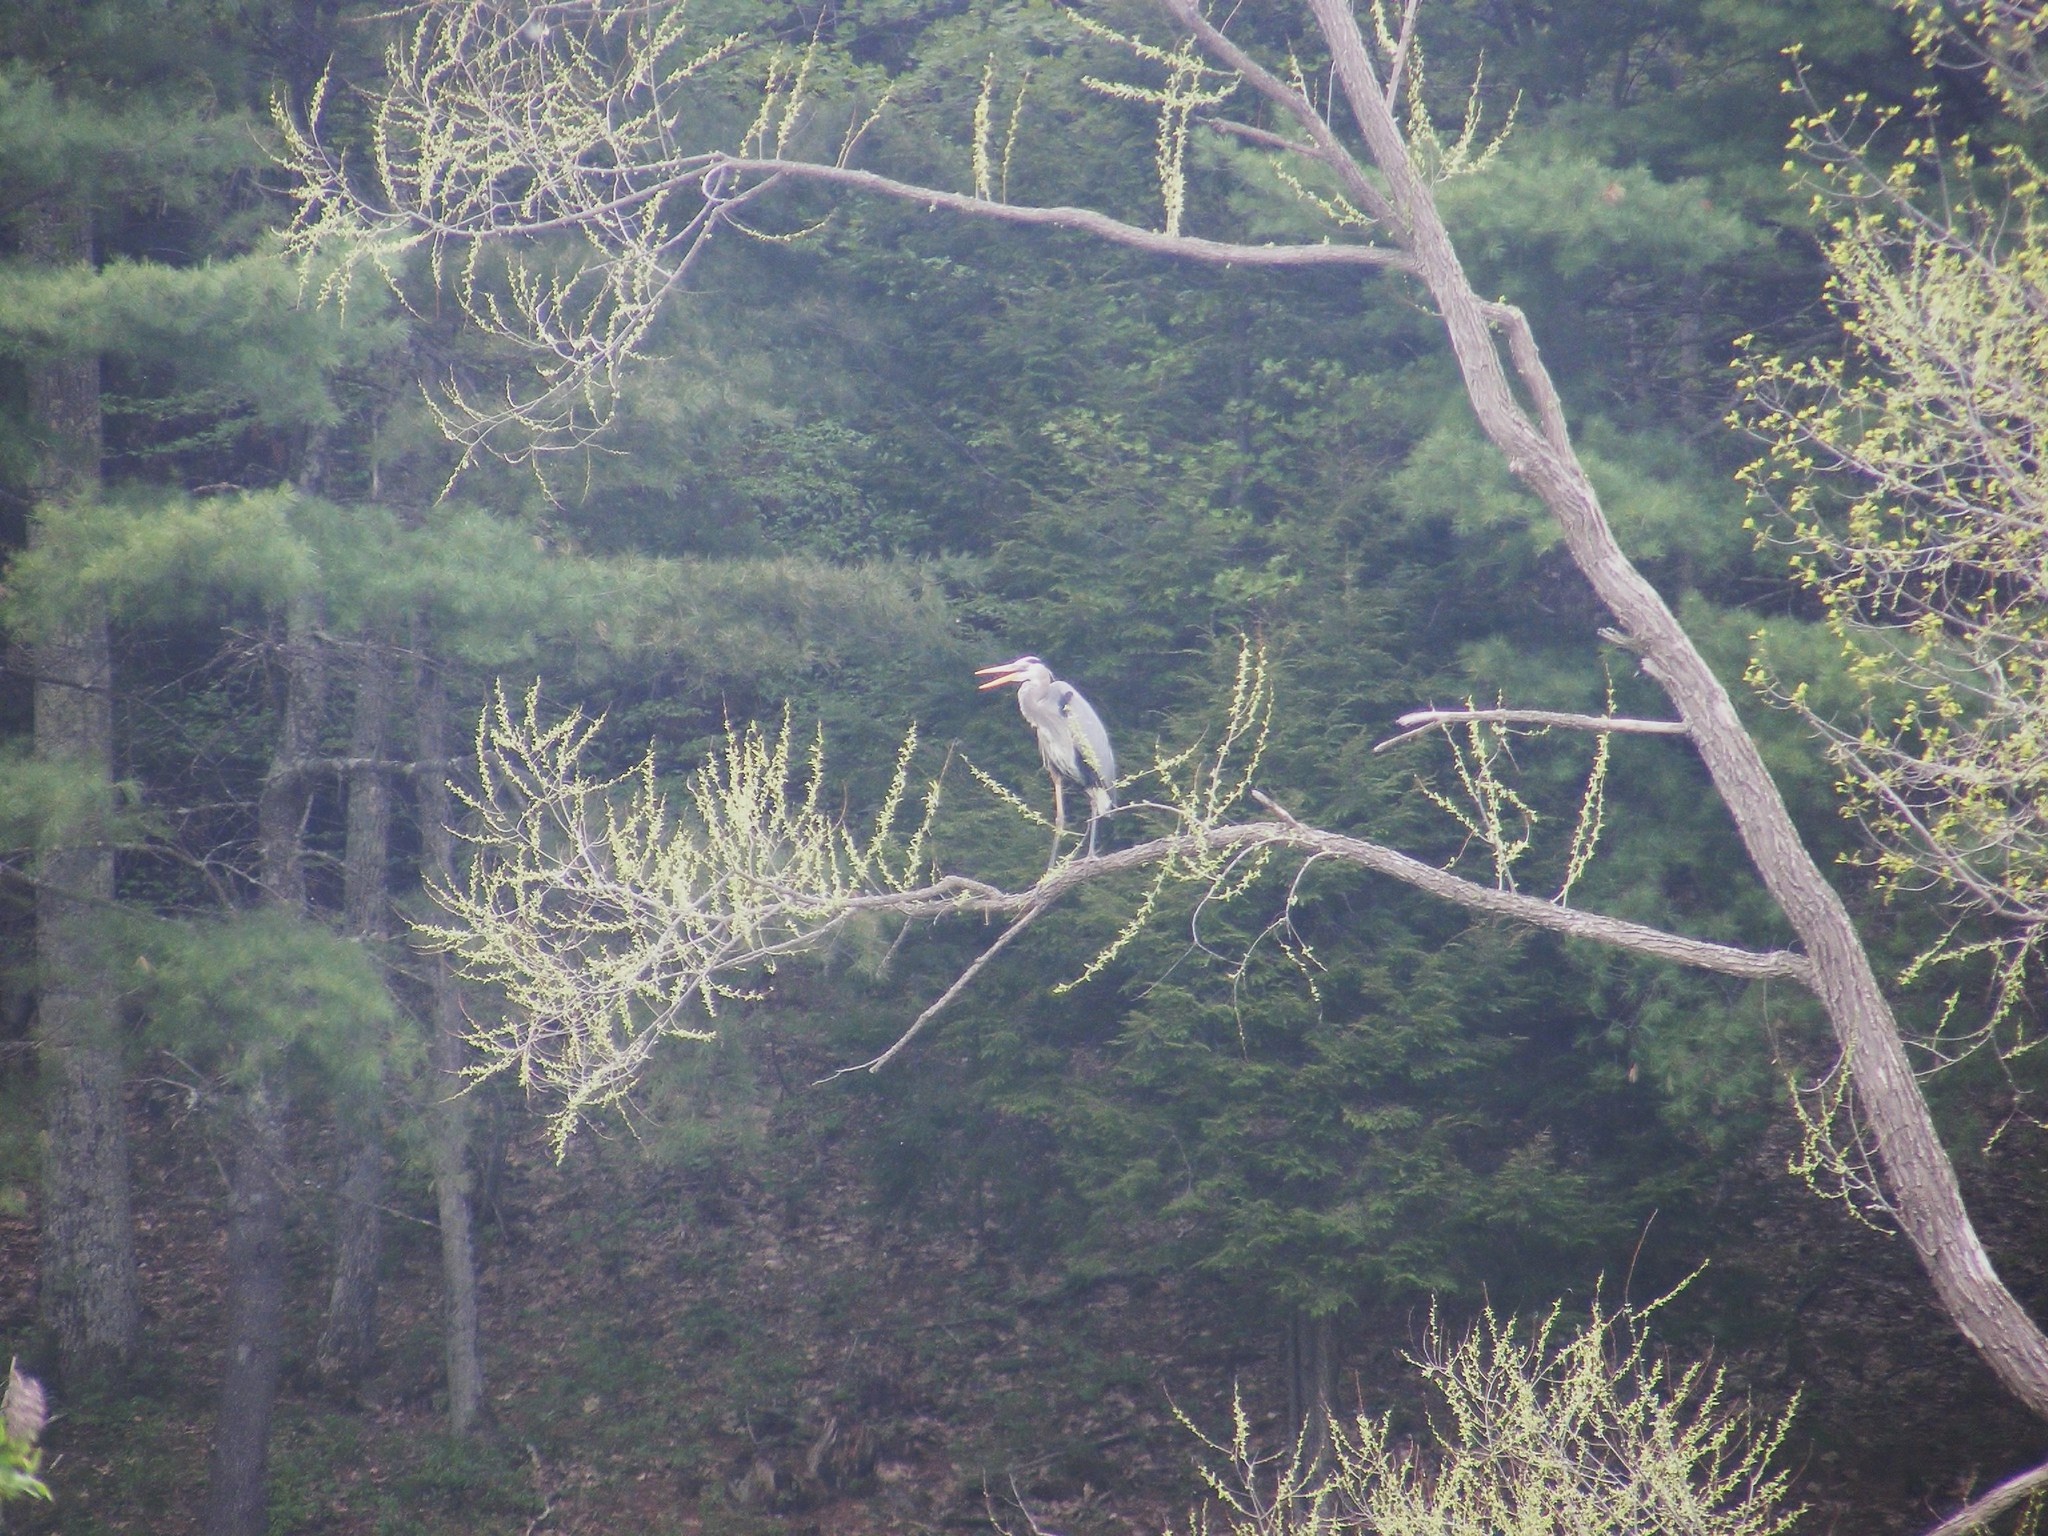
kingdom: Animalia
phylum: Chordata
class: Aves
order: Pelecaniformes
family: Ardeidae
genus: Ardea
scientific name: Ardea herodias
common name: Great blue heron
